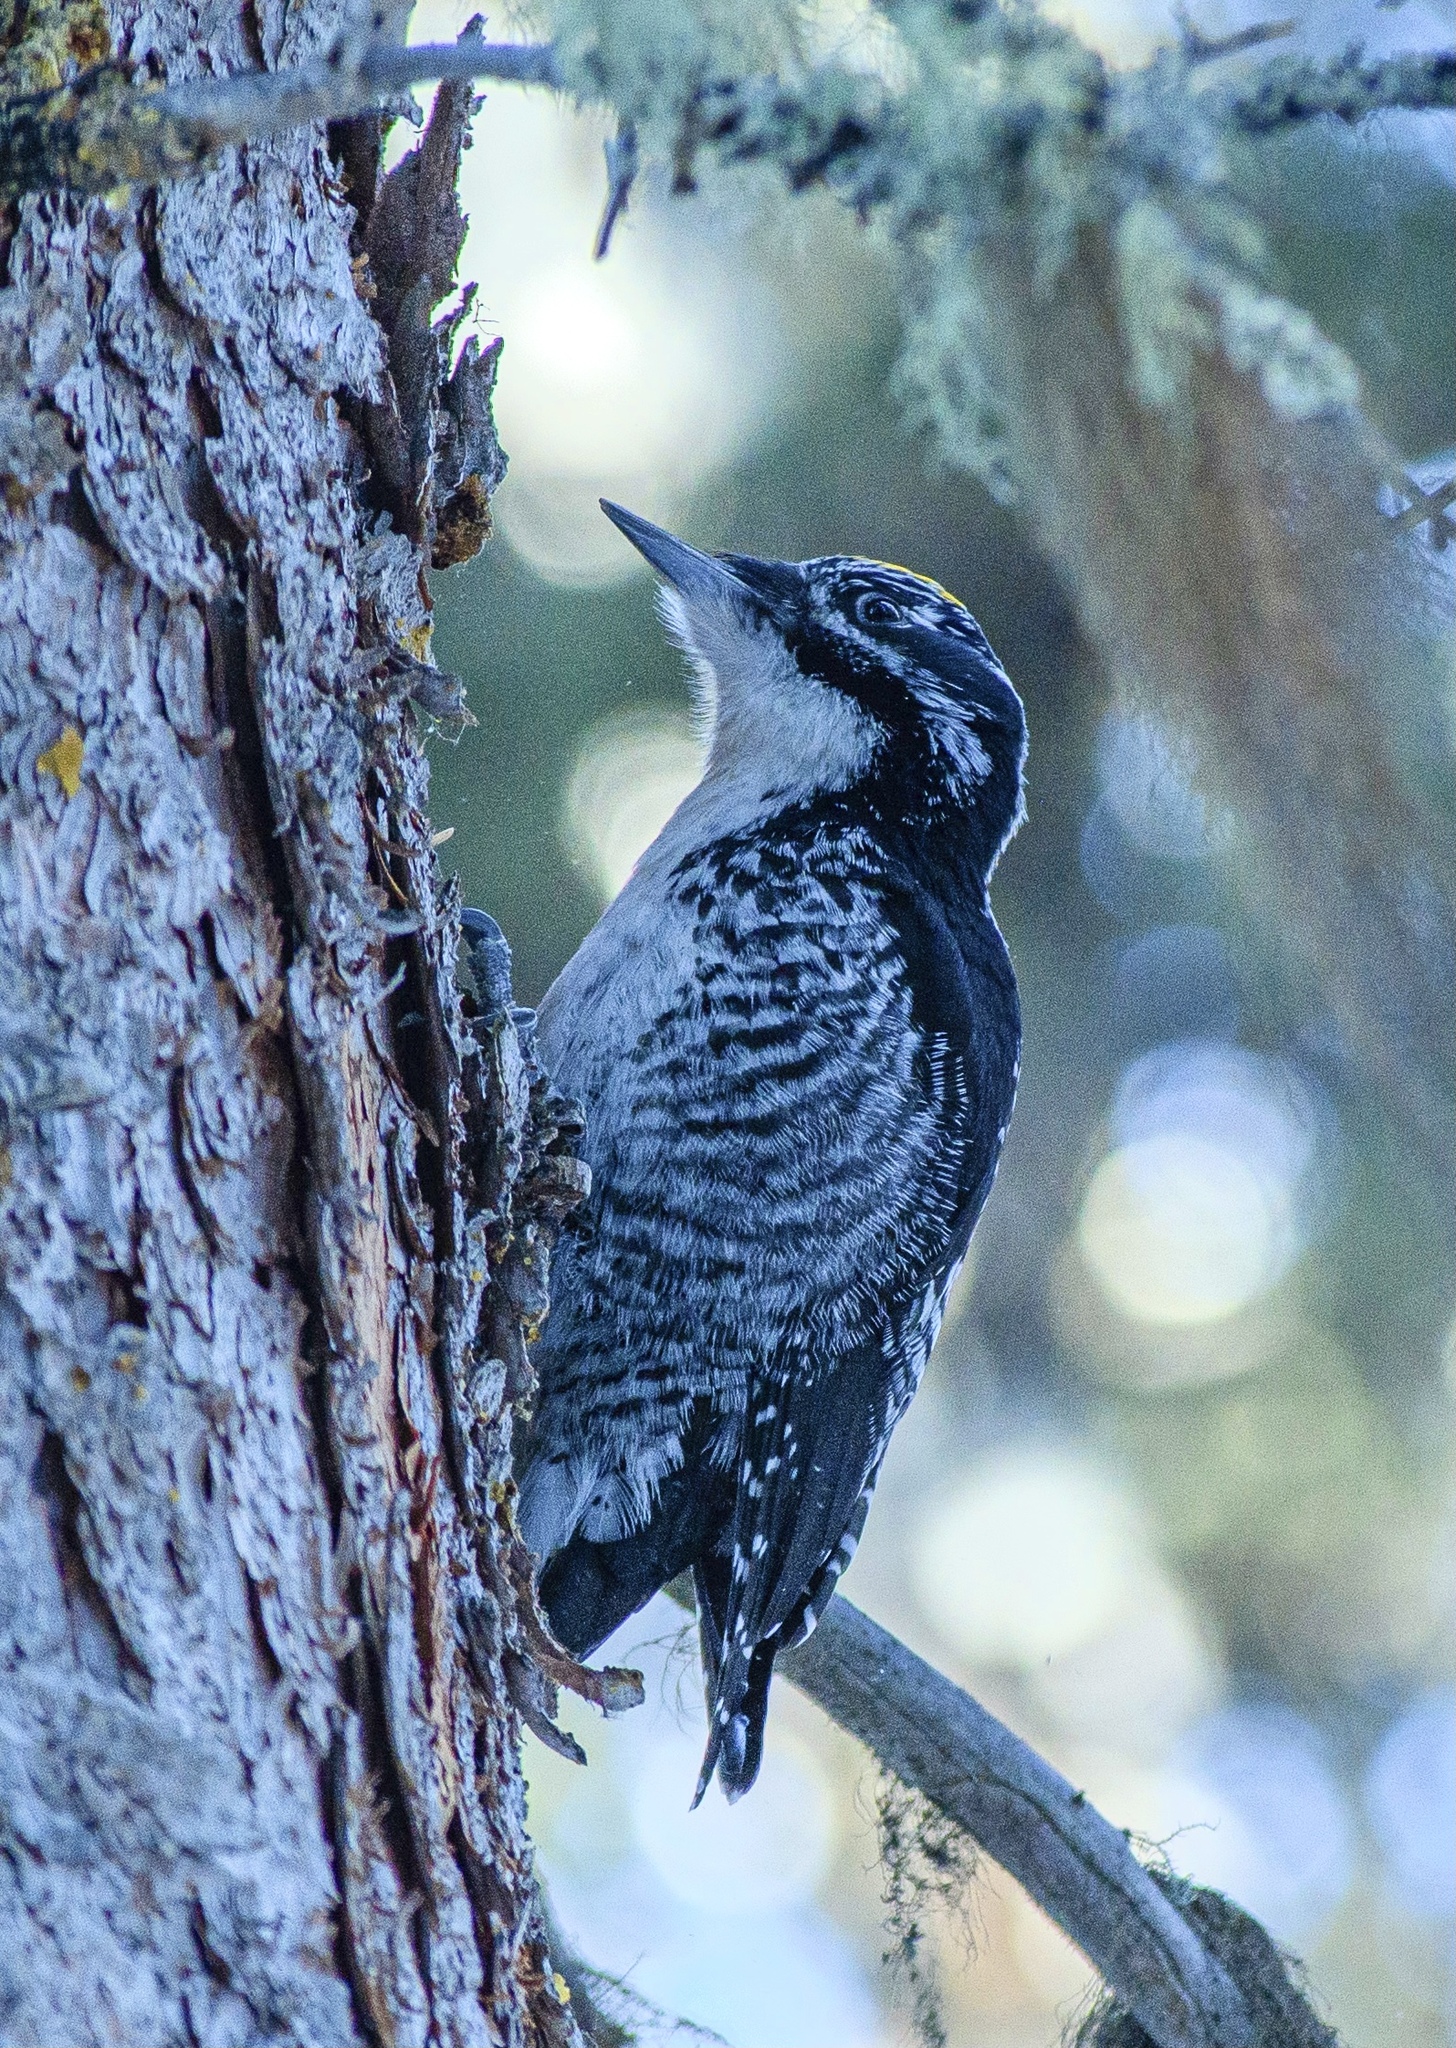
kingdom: Animalia
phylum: Chordata
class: Aves
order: Piciformes
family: Picidae
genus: Picoides
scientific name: Picoides dorsalis
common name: American three-toed woodpecker
